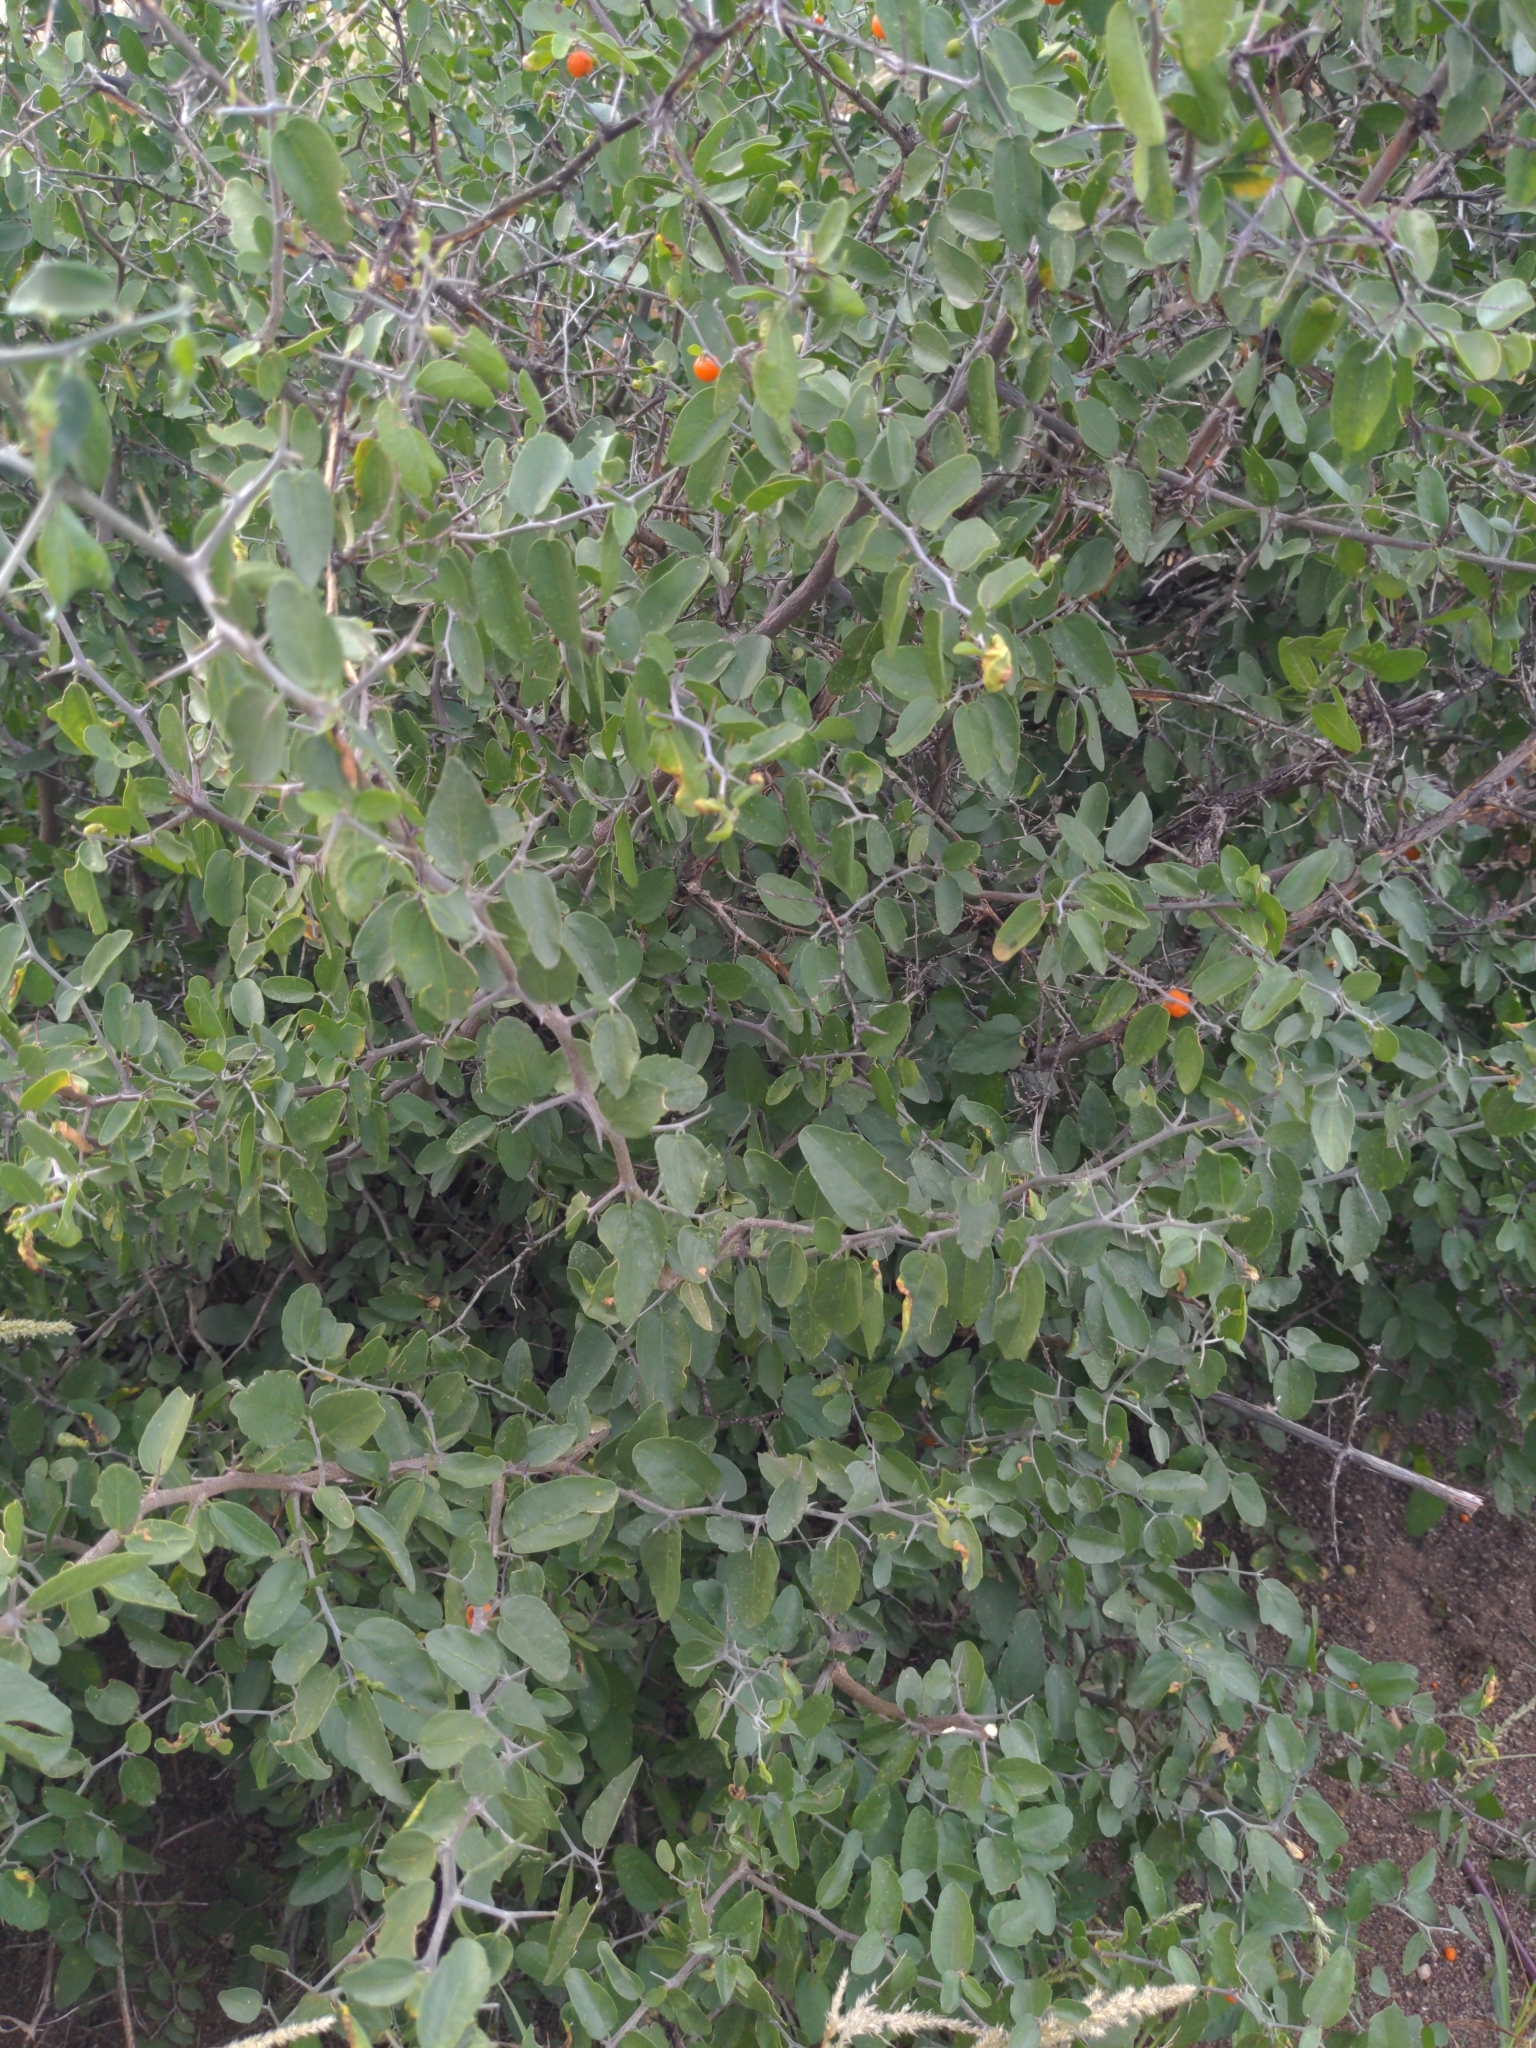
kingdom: Plantae
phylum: Tracheophyta
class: Magnoliopsida
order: Rosales
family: Cannabaceae
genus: Celtis
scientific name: Celtis pallida
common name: Desert hackberry
